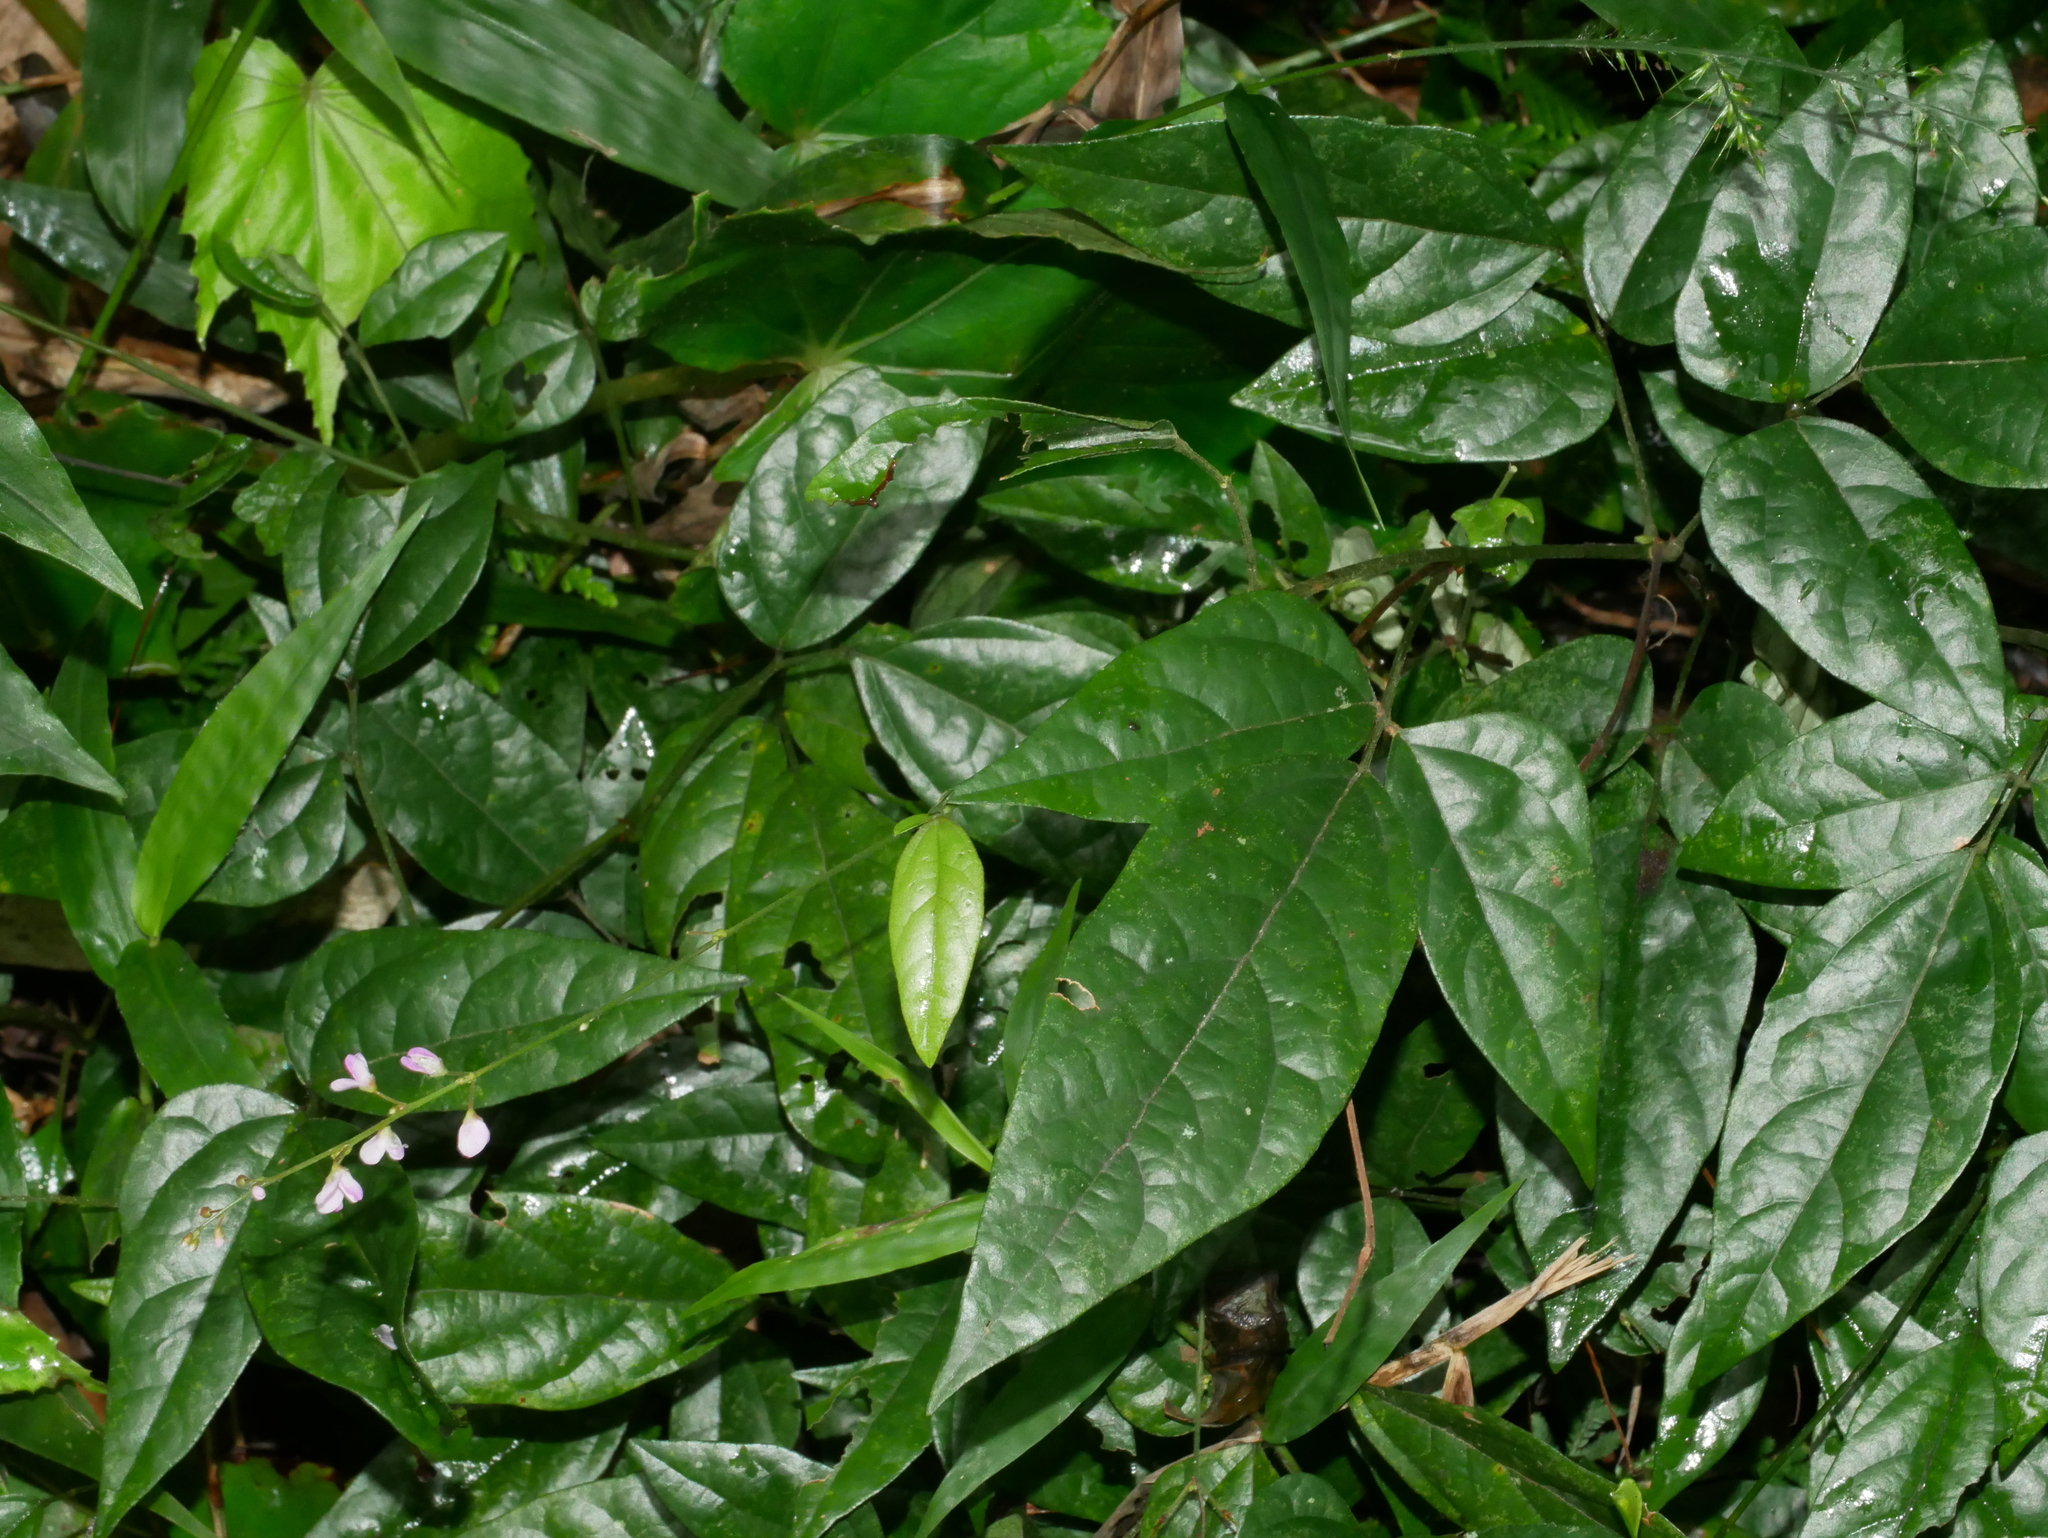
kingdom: Plantae
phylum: Tracheophyta
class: Magnoliopsida
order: Fabales
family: Fabaceae
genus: Hylodesmum
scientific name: Hylodesmum laterale
